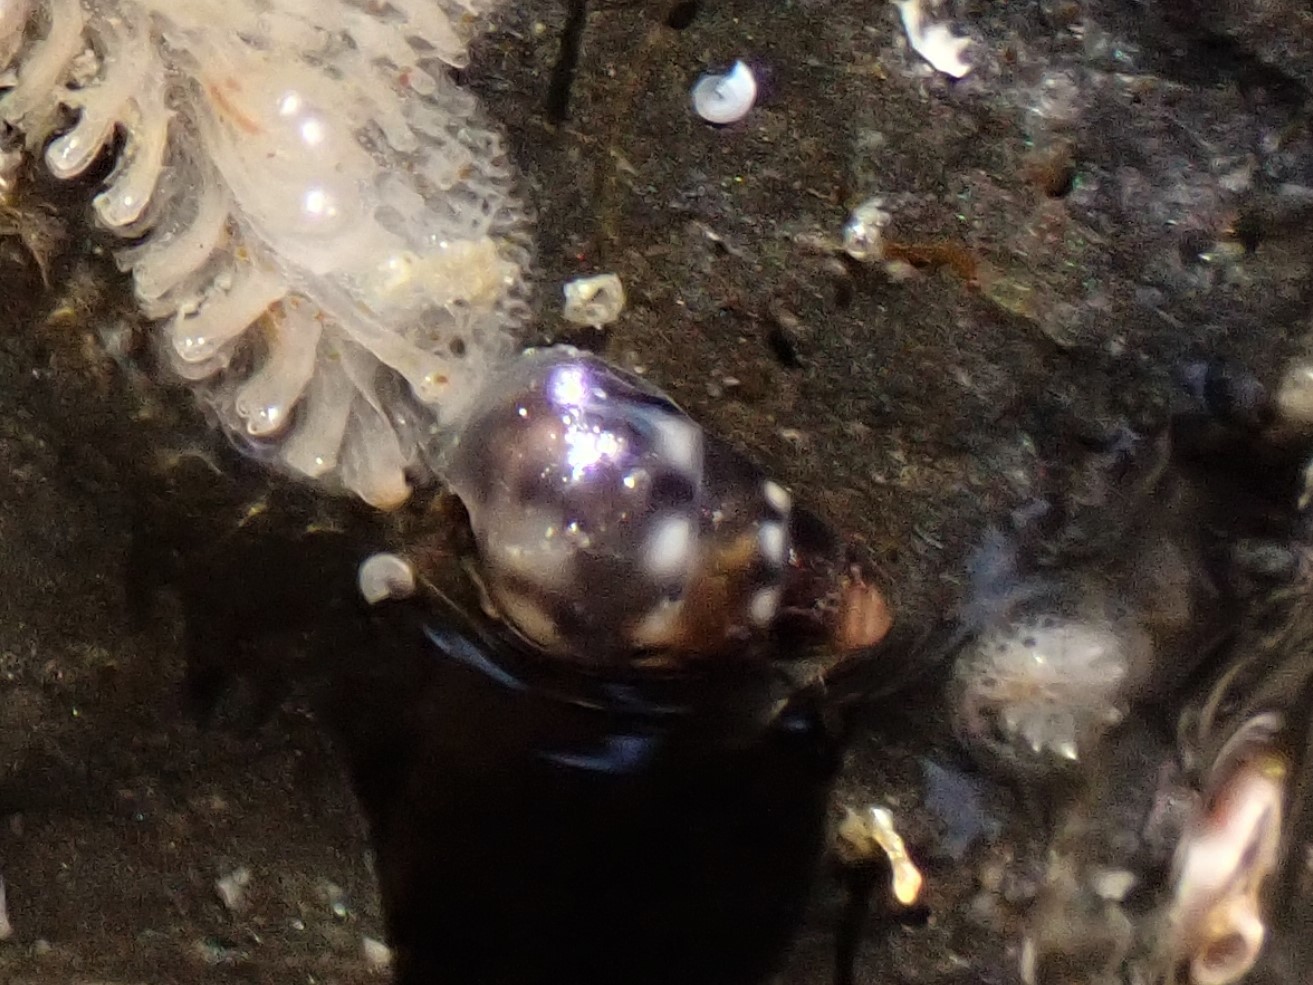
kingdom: Animalia
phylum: Mollusca
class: Gastropoda
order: Littorinimorpha
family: Eatoniellidae
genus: Eatoniella
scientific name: Eatoniella limbata
